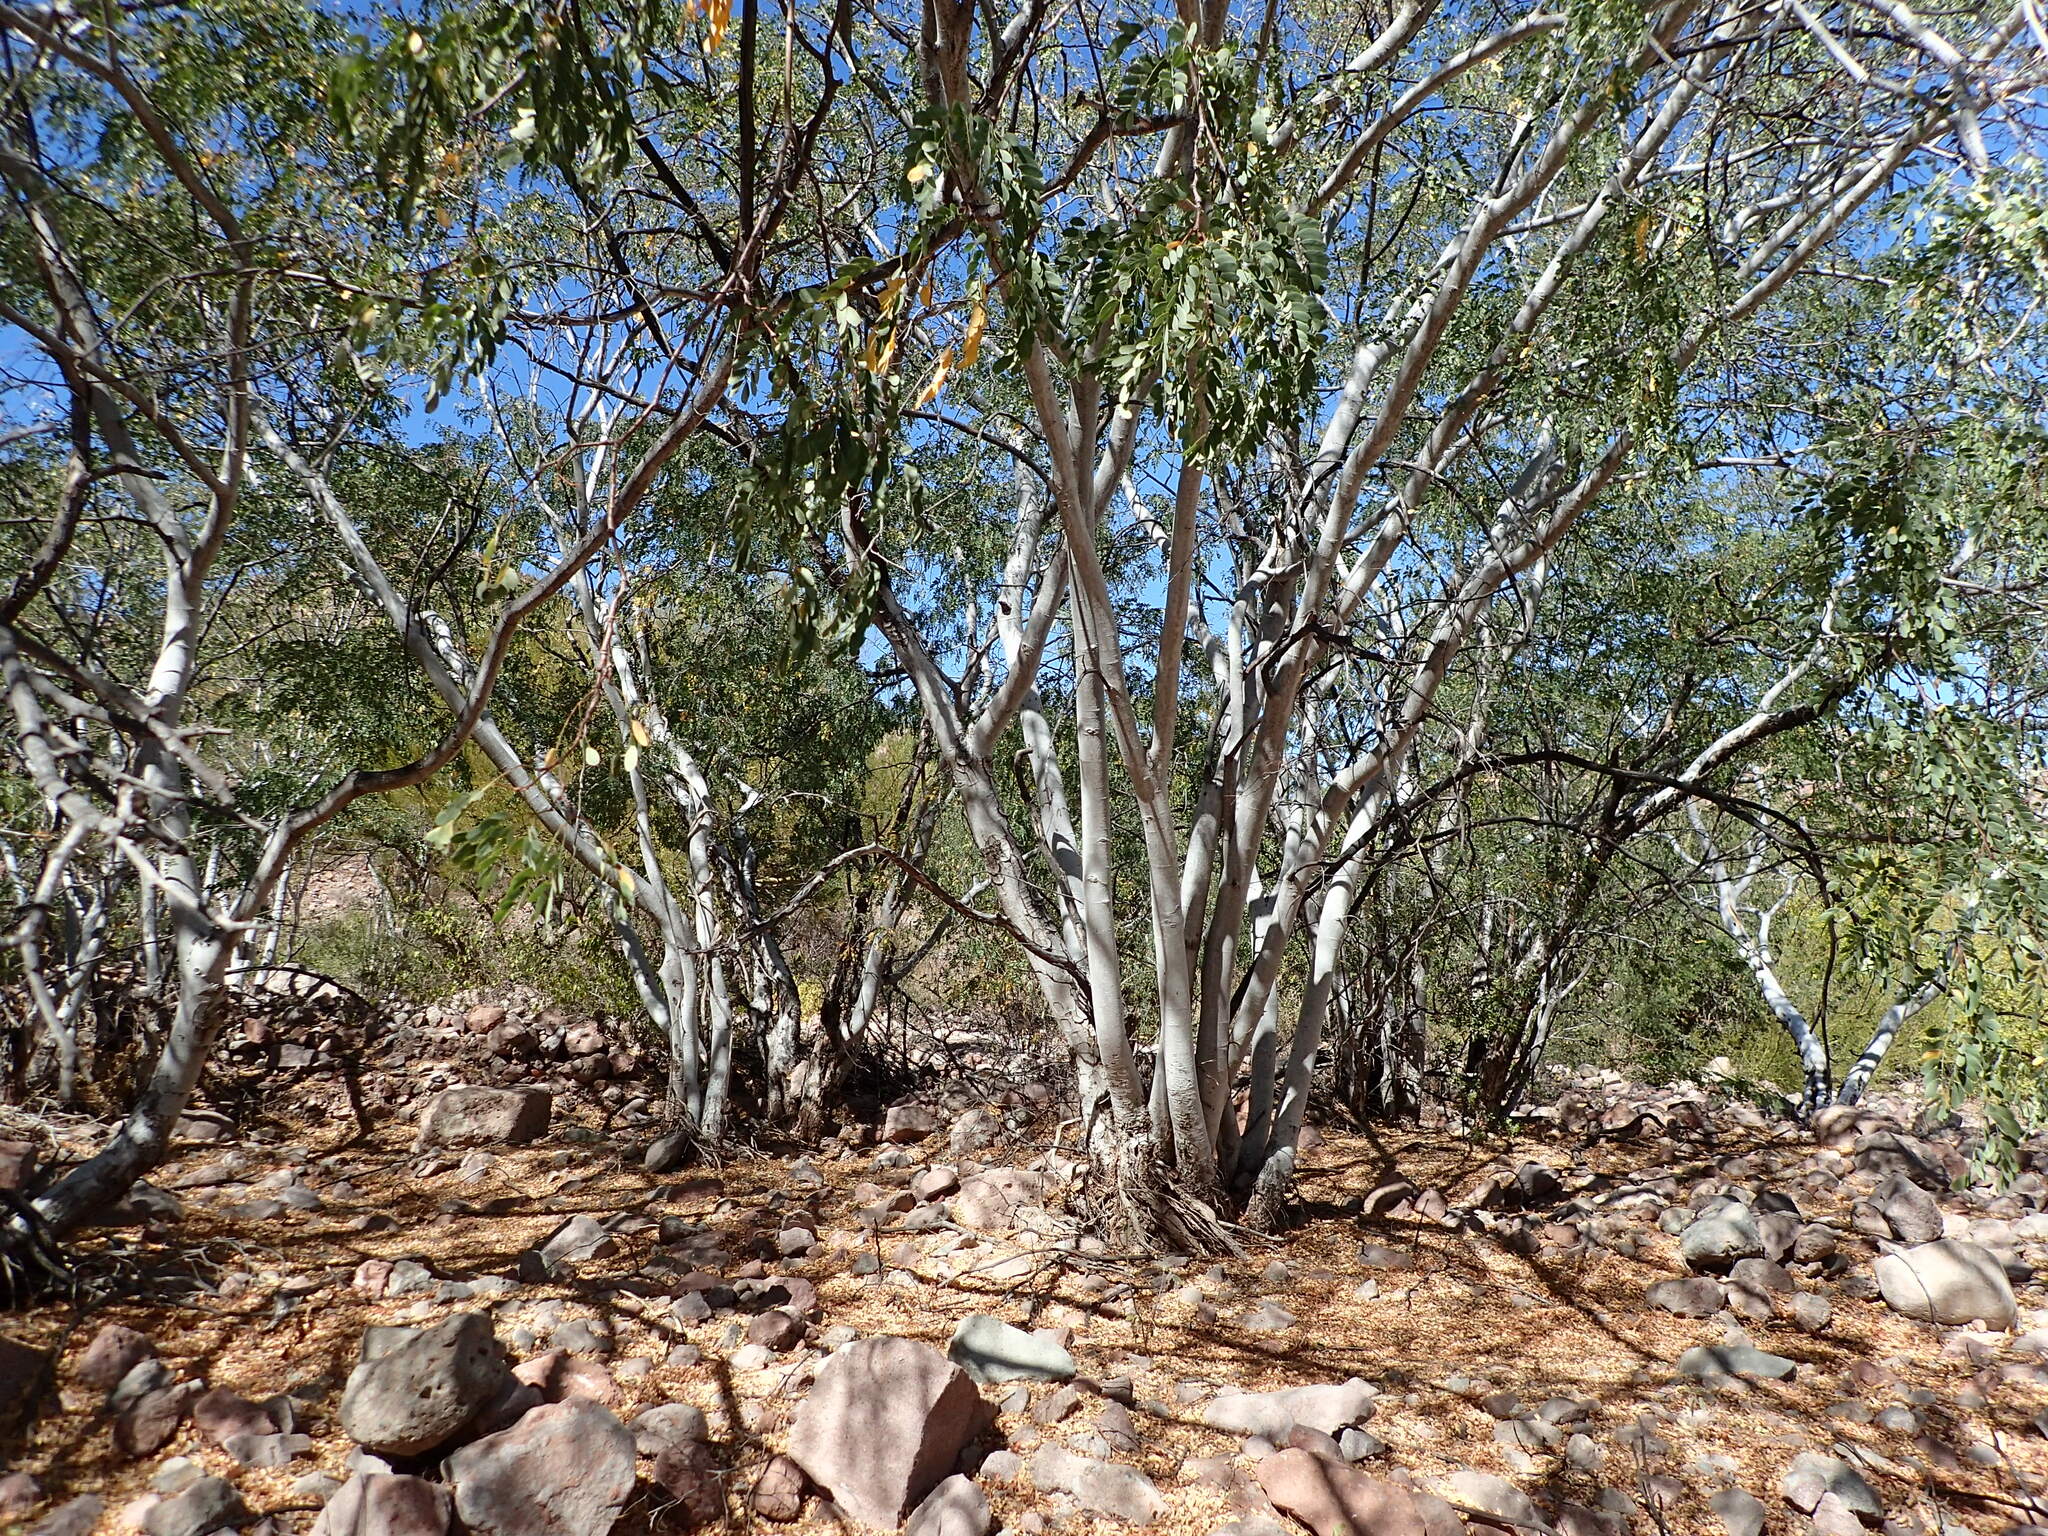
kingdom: Plantae
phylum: Tracheophyta
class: Magnoliopsida
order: Fabales
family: Fabaceae
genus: Lysiloma
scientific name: Lysiloma candidum
